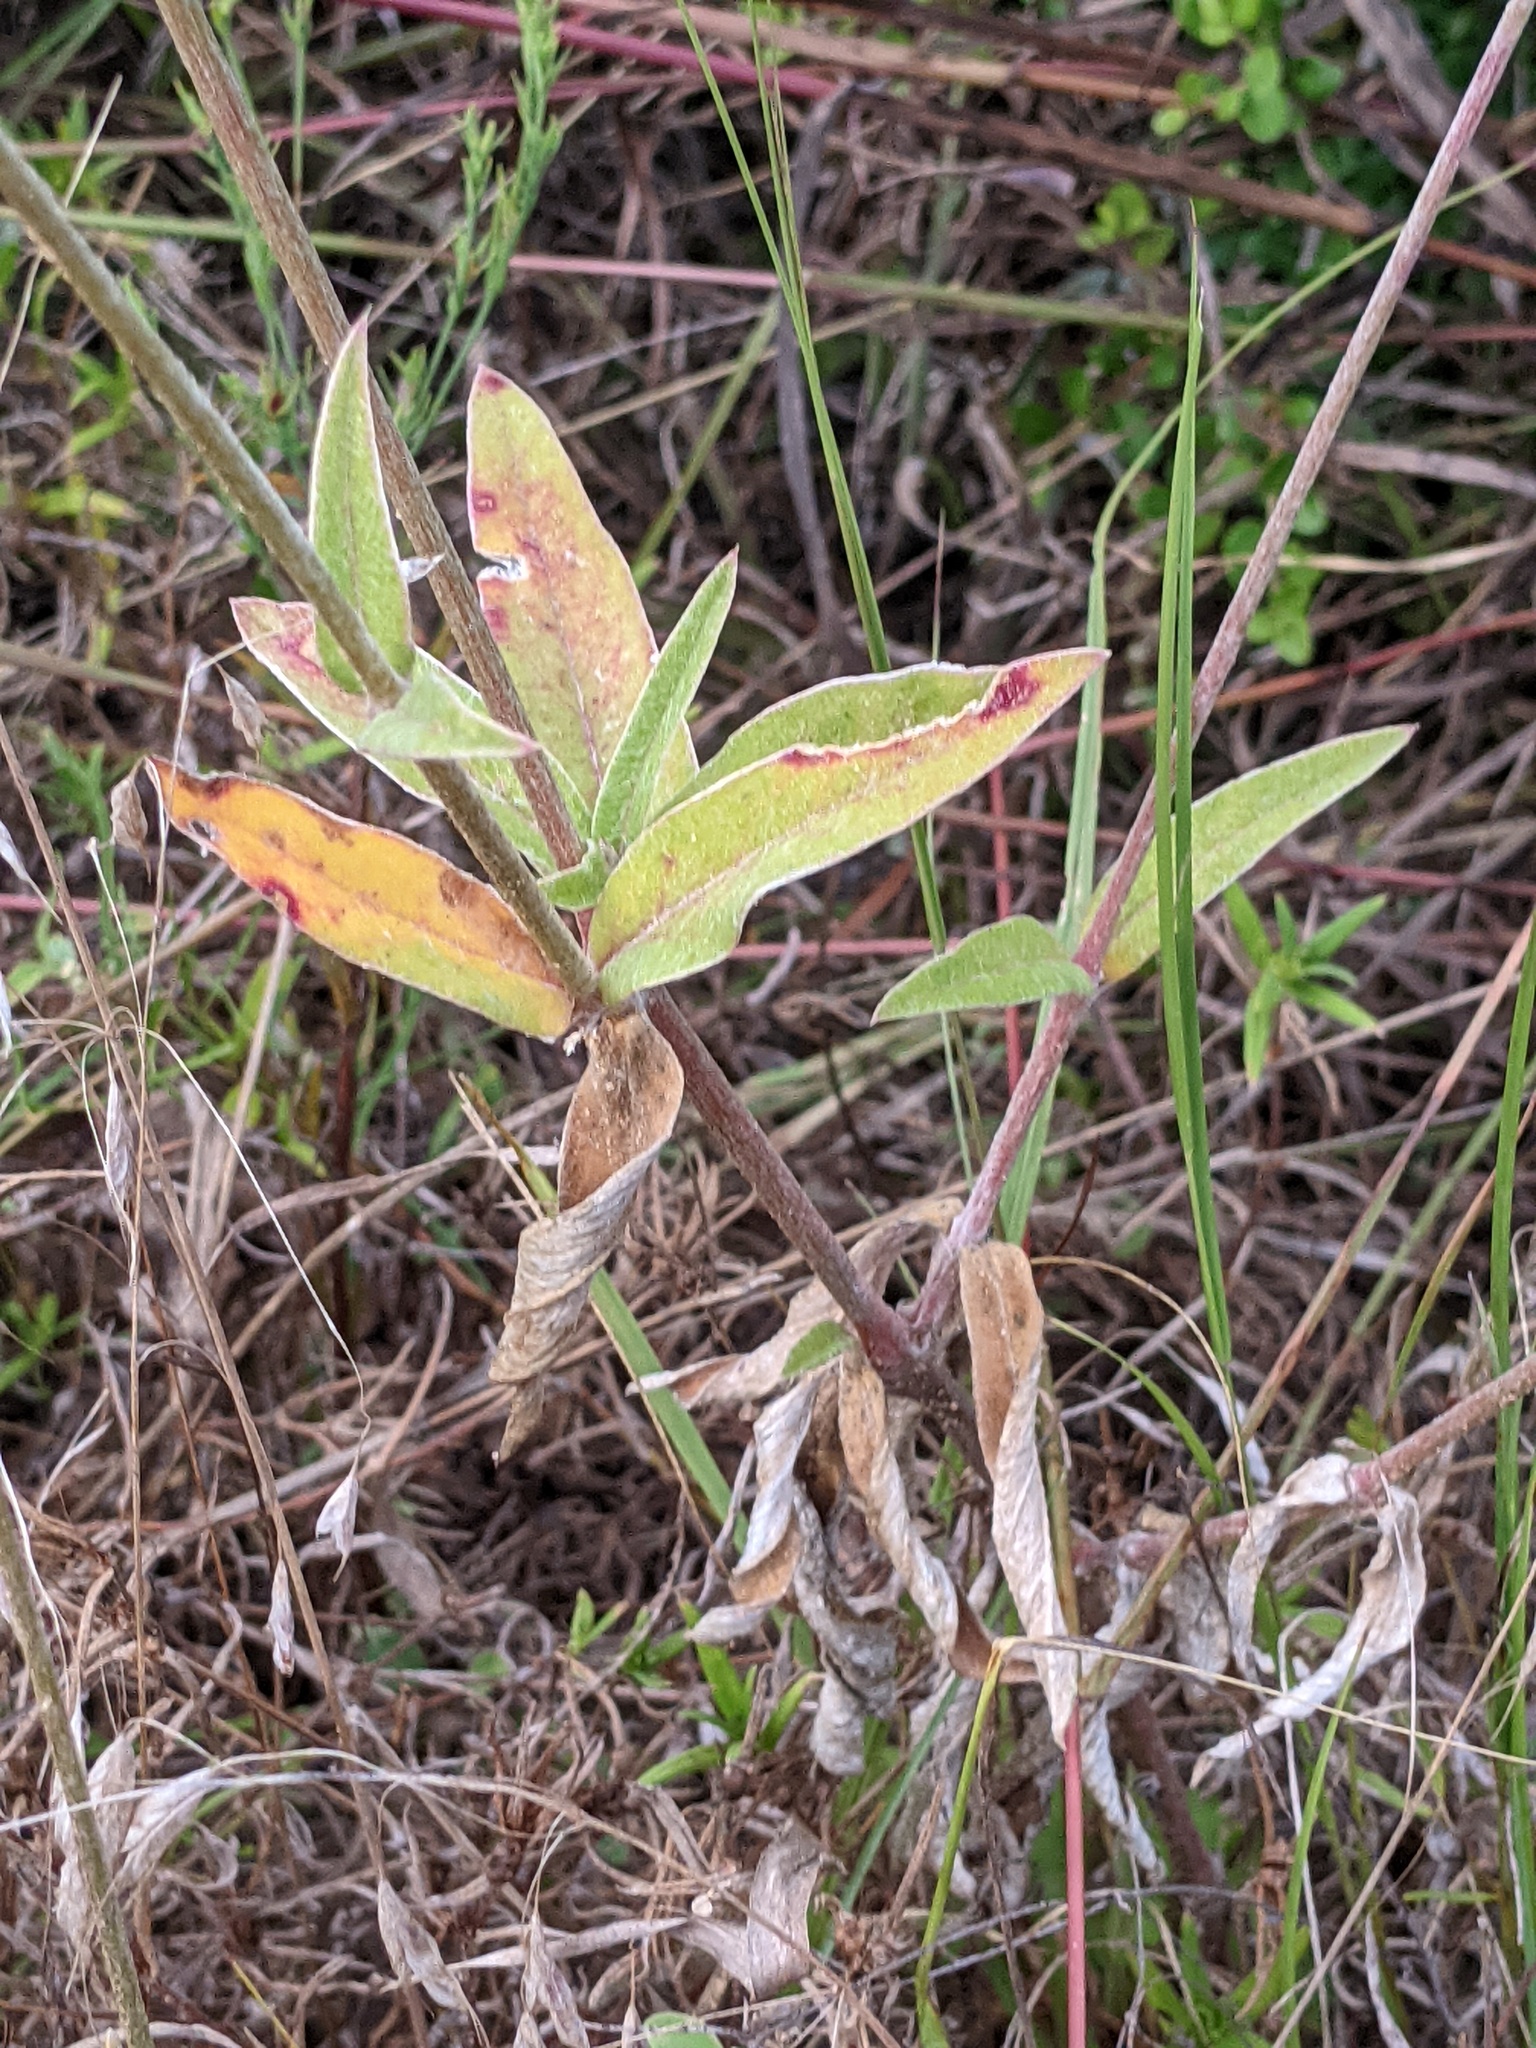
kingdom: Plantae
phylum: Tracheophyta
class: Magnoliopsida
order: Caryophyllales
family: Amaranthaceae
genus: Froelichia
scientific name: Froelichia floridana
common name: Florida snake-cotton
